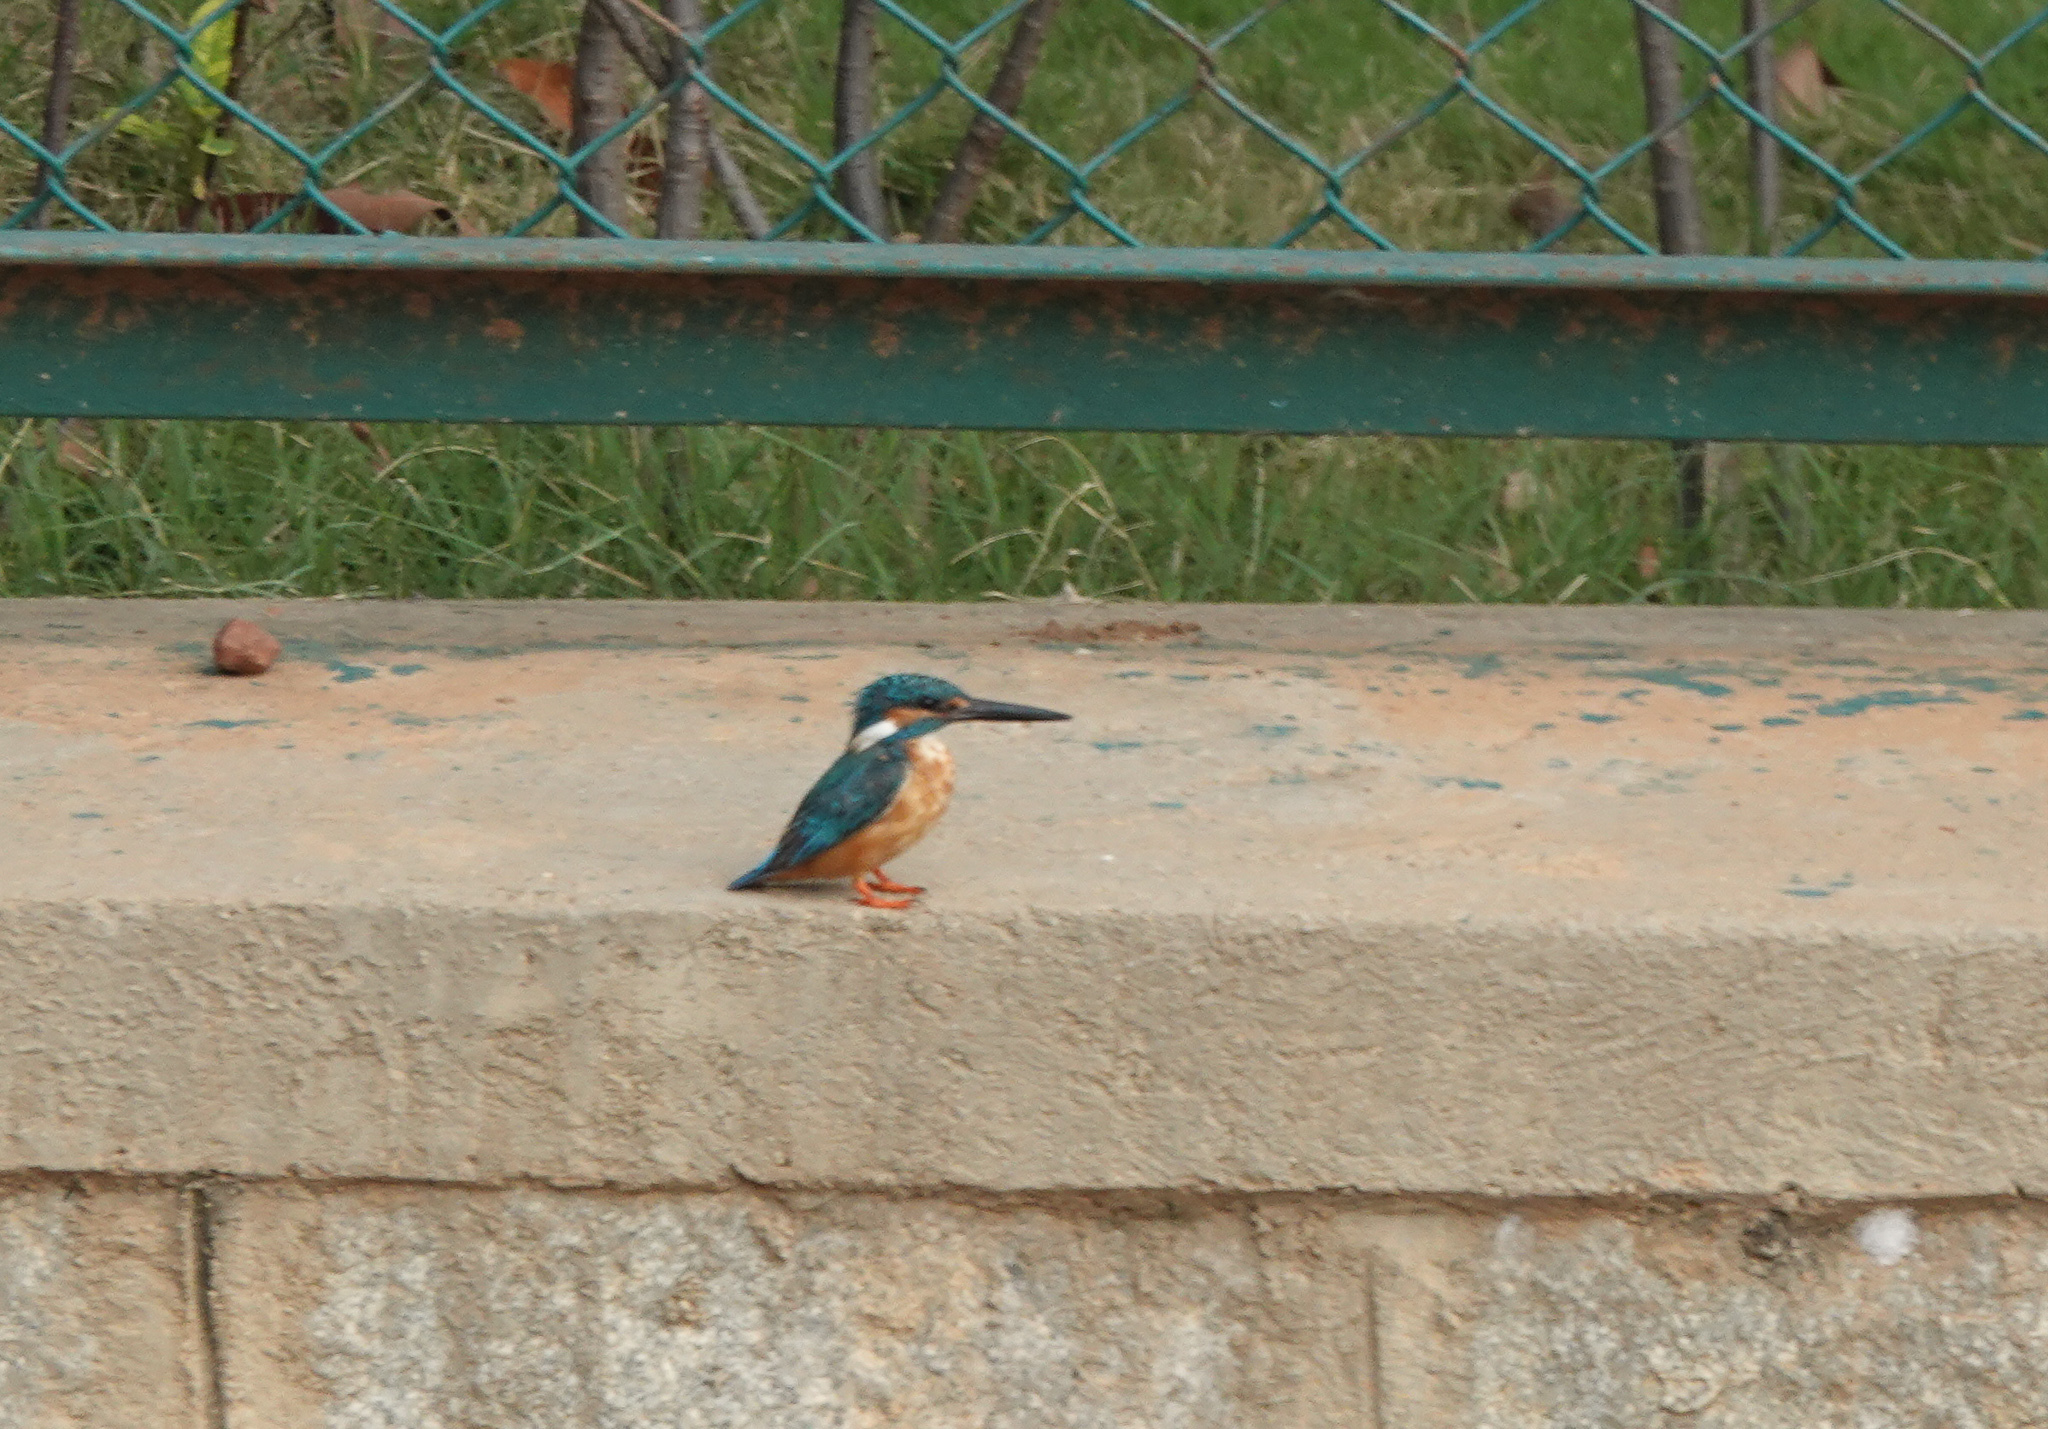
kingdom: Animalia
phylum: Chordata
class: Aves
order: Coraciiformes
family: Alcedinidae
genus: Alcedo
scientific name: Alcedo atthis
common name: Common kingfisher
